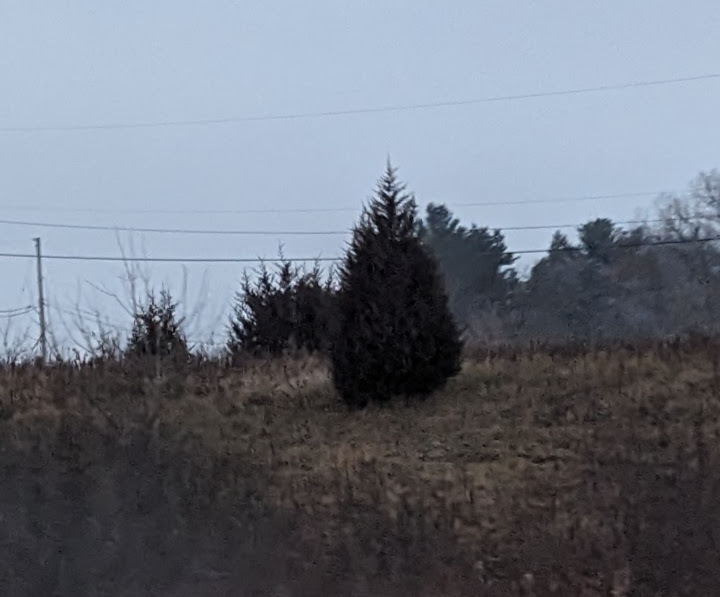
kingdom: Plantae
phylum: Tracheophyta
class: Pinopsida
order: Pinales
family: Cupressaceae
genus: Juniperus
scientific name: Juniperus virginiana
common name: Red juniper
